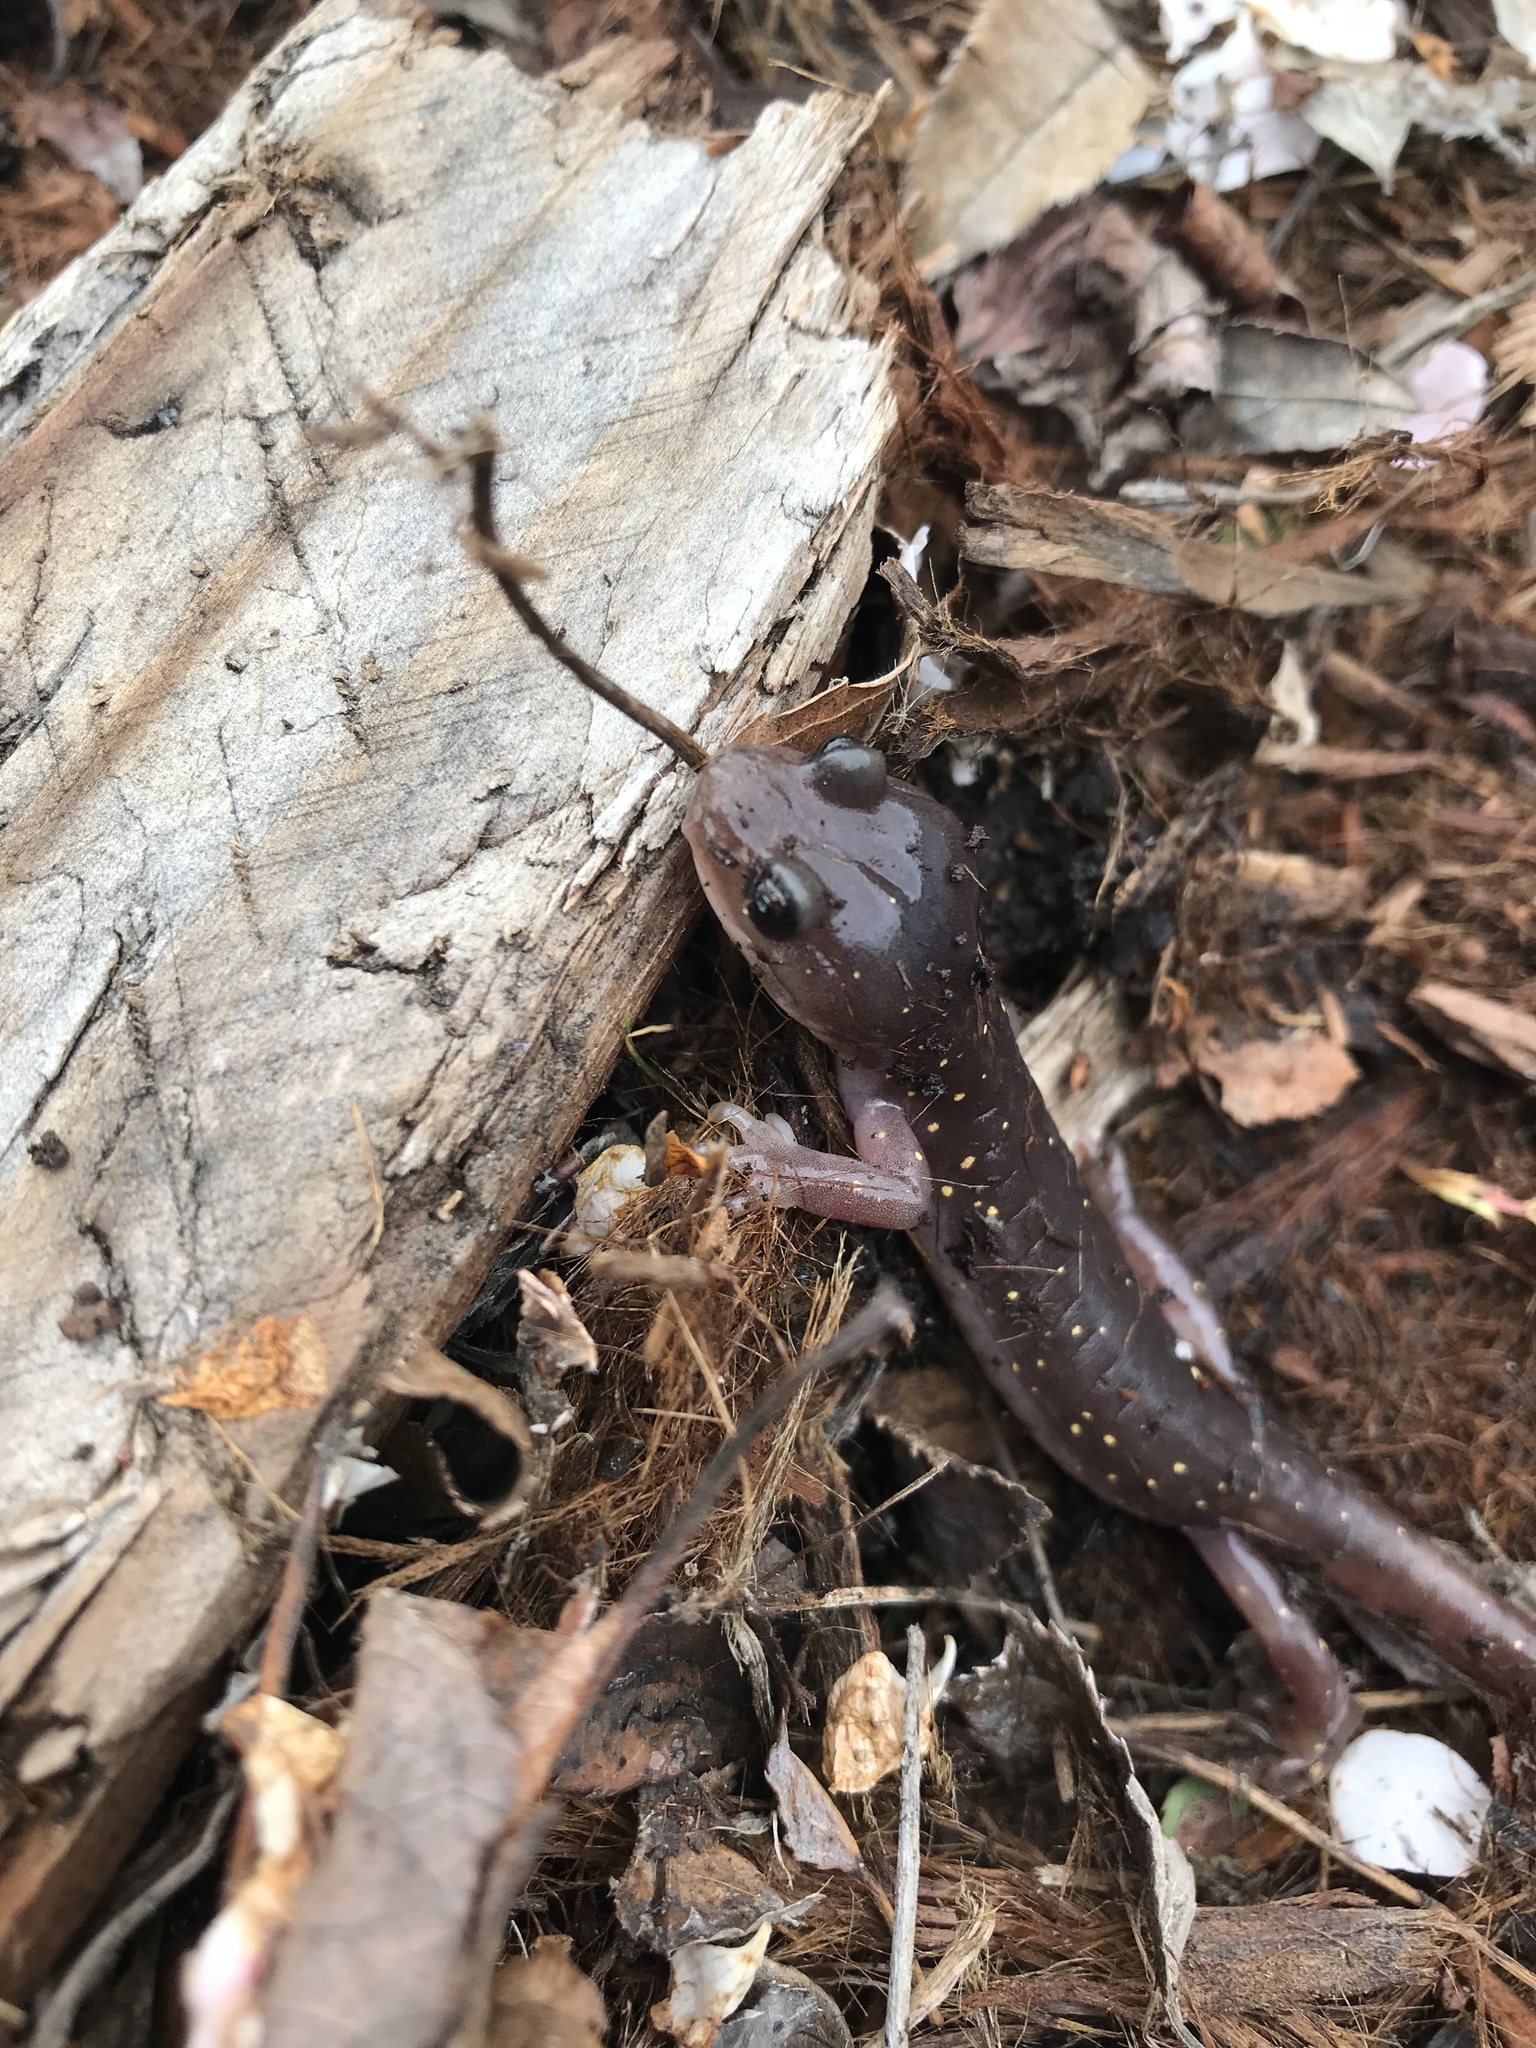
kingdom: Animalia
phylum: Chordata
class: Amphibia
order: Caudata
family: Plethodontidae
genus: Aneides
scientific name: Aneides lugubris
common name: Arboreal salamander
